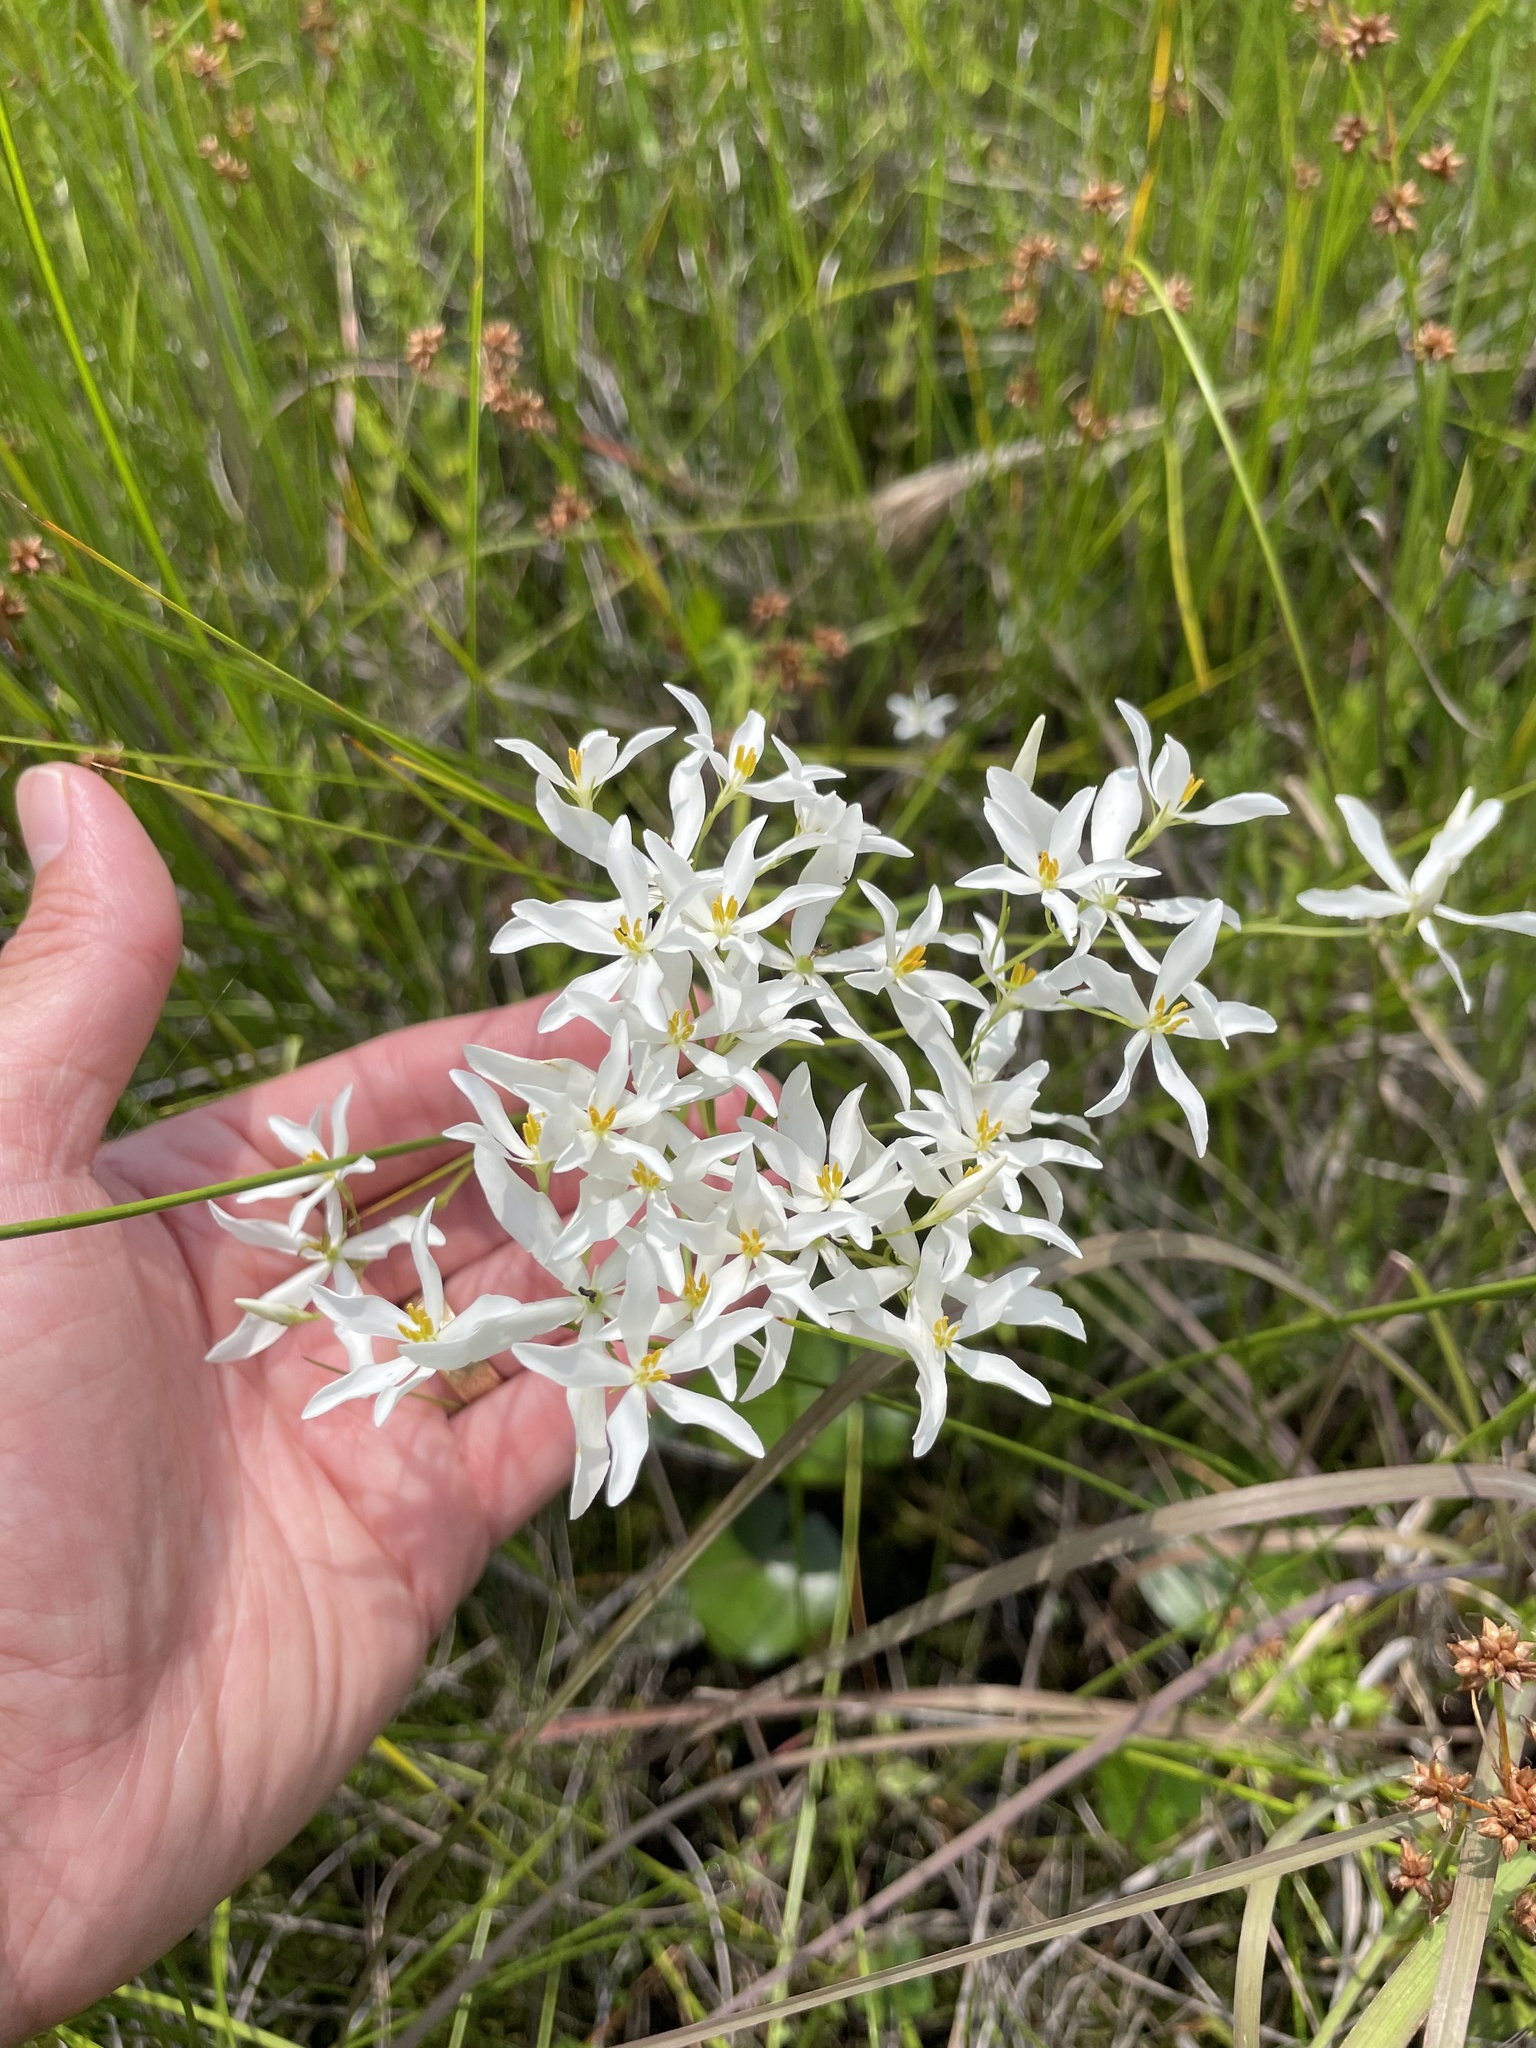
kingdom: Plantae
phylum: Tracheophyta
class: Magnoliopsida
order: Gentianales
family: Gentianaceae
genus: Sabatia
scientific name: Sabatia difformis
